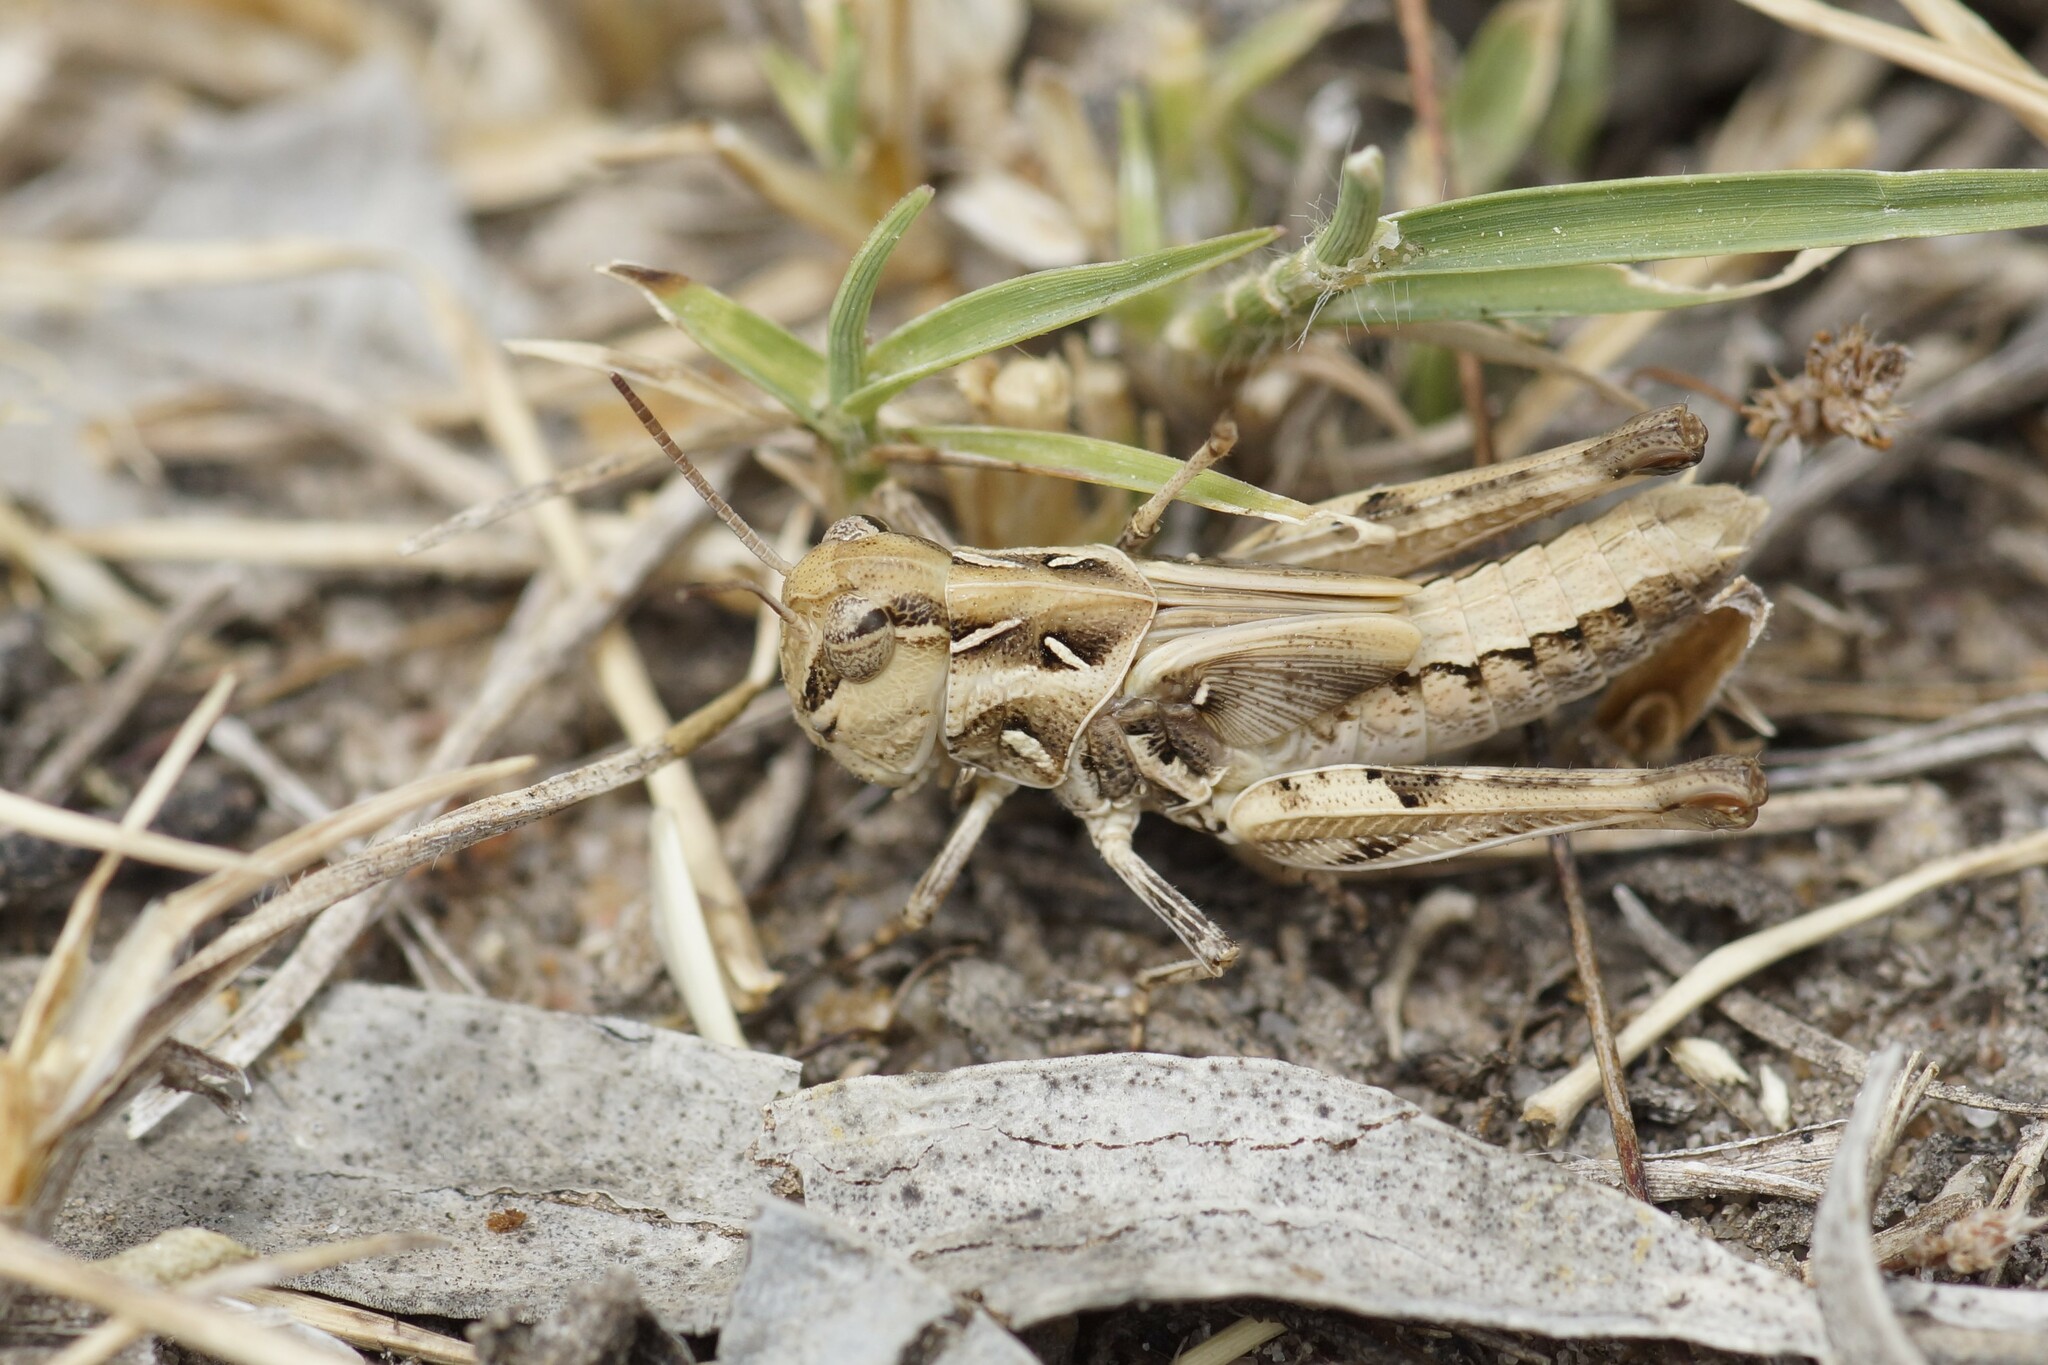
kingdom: Animalia
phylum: Arthropoda
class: Insecta
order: Orthoptera
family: Acrididae
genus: Oedaleus
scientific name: Oedaleus australis
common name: Eastern oedaleus
